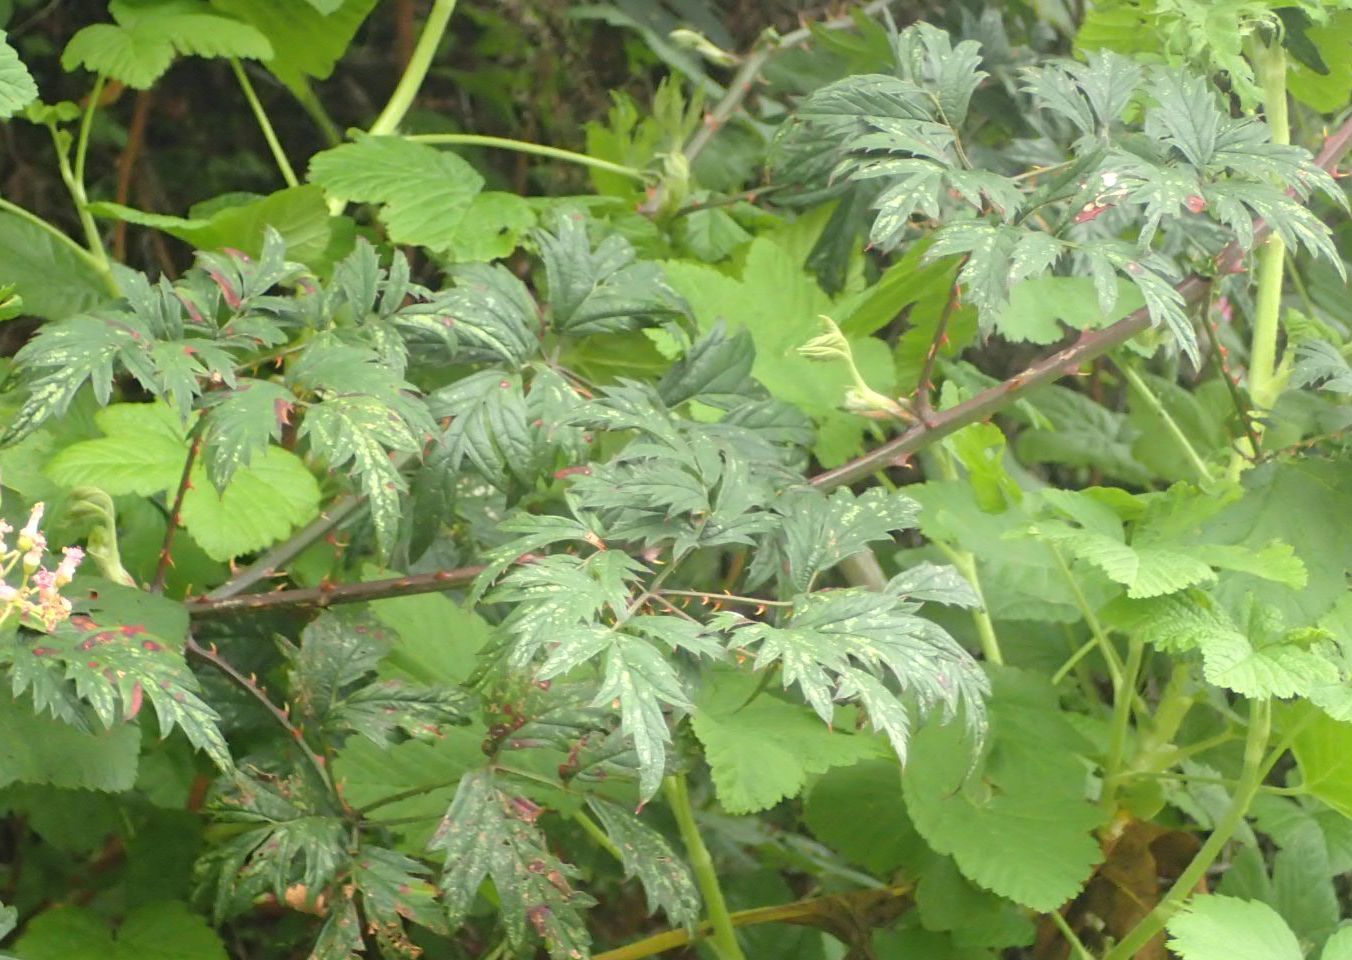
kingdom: Plantae
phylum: Tracheophyta
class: Magnoliopsida
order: Rosales
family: Rosaceae
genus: Rubus
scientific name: Rubus laciniatus
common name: Evergreen blackberry
